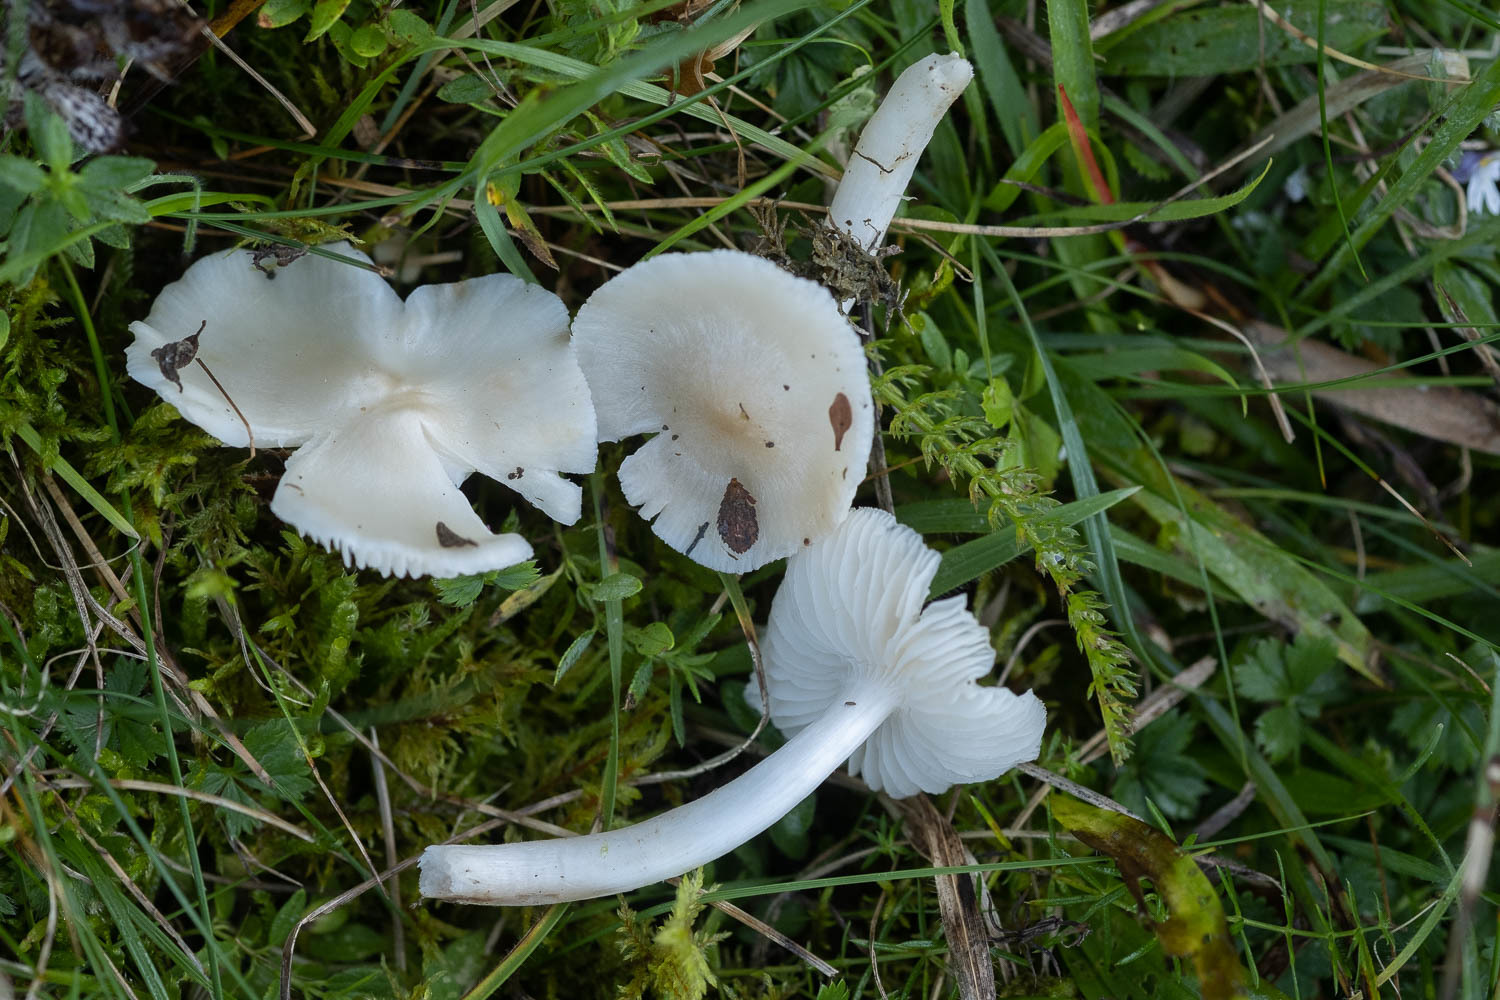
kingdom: Fungi
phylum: Basidiomycota
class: Agaricomycetes
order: Agaricales
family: Hygrophoraceae
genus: Cuphophyllus
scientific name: Cuphophyllus fornicatus
